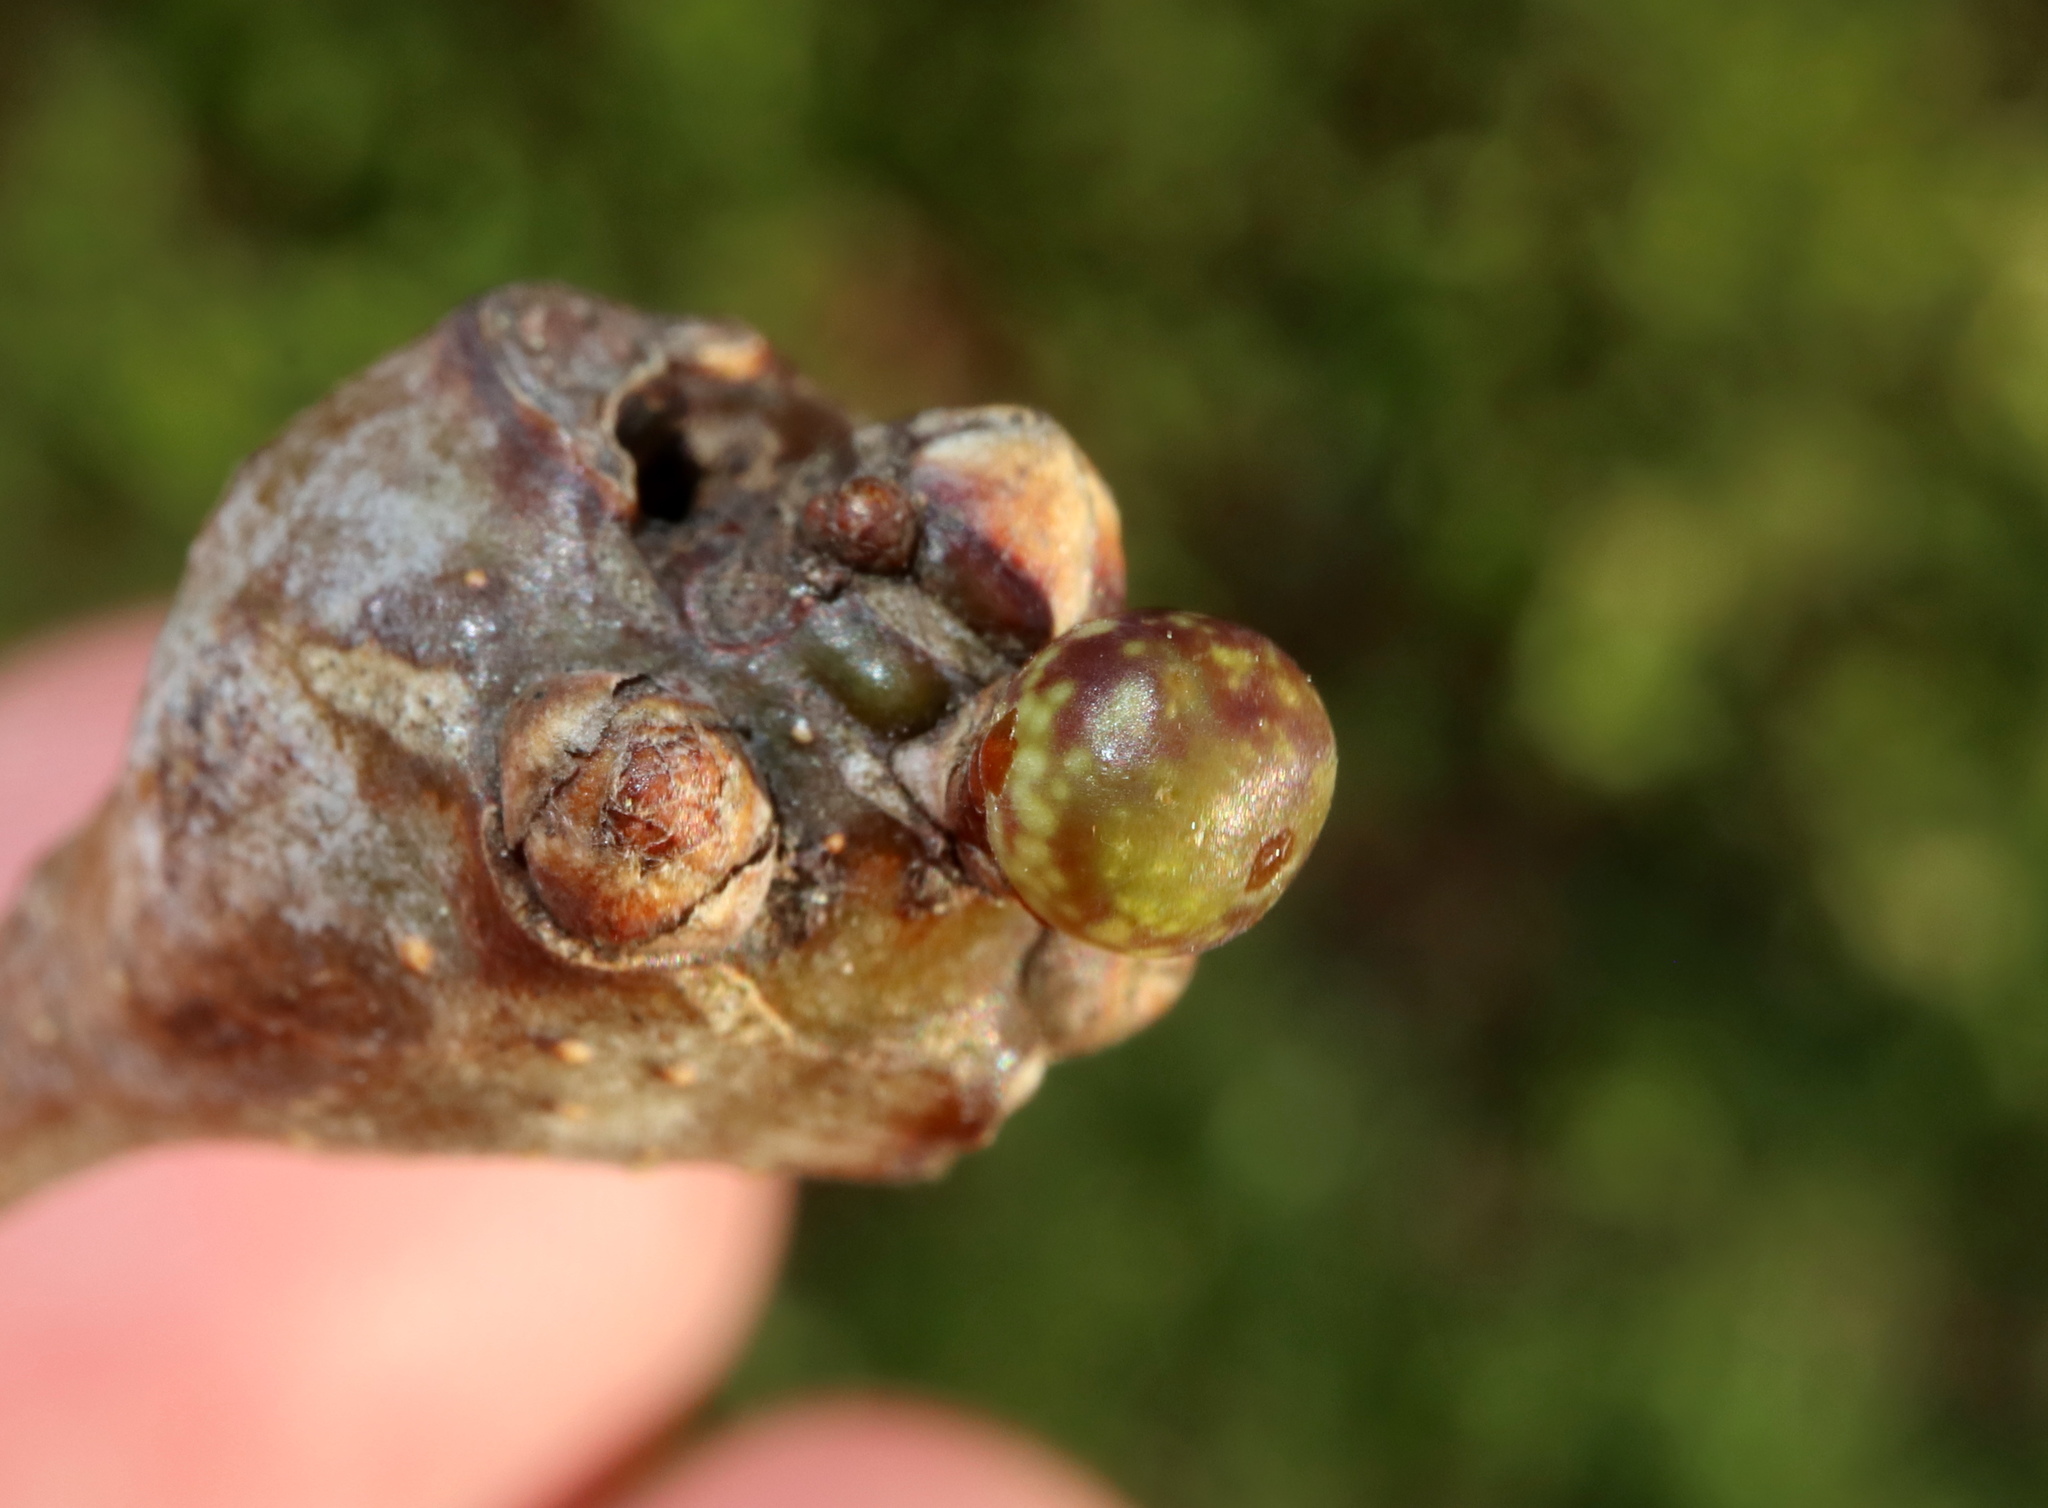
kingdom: Animalia
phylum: Arthropoda
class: Insecta
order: Hymenoptera
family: Cynipidae
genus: Andricus
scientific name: Andricus
